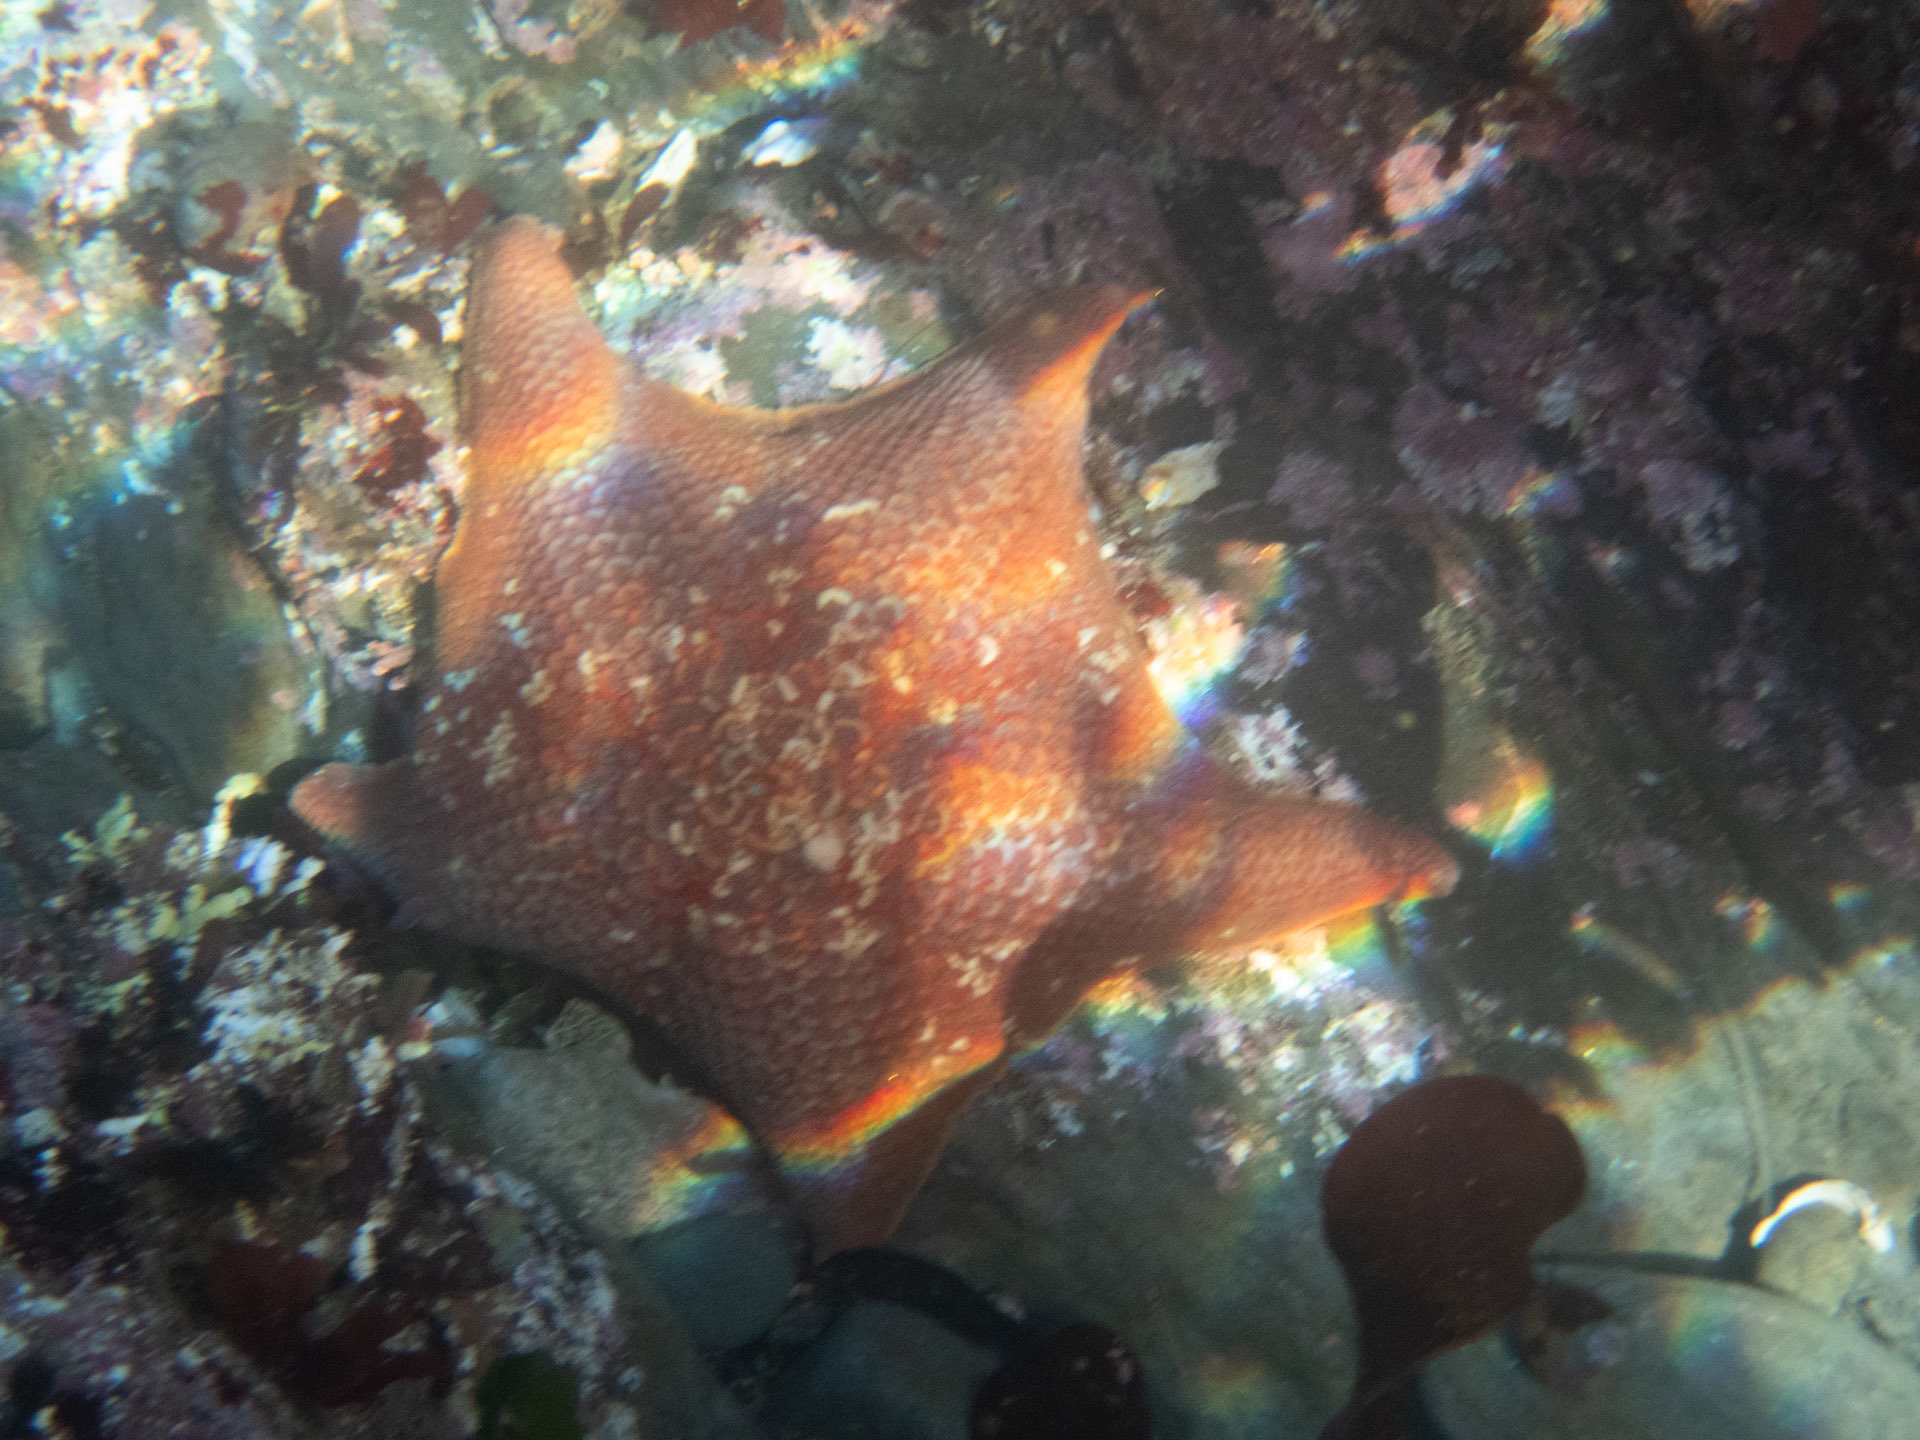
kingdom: Animalia
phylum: Echinodermata
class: Asteroidea
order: Valvatida
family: Asterinidae
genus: Patiria
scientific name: Patiria miniata
